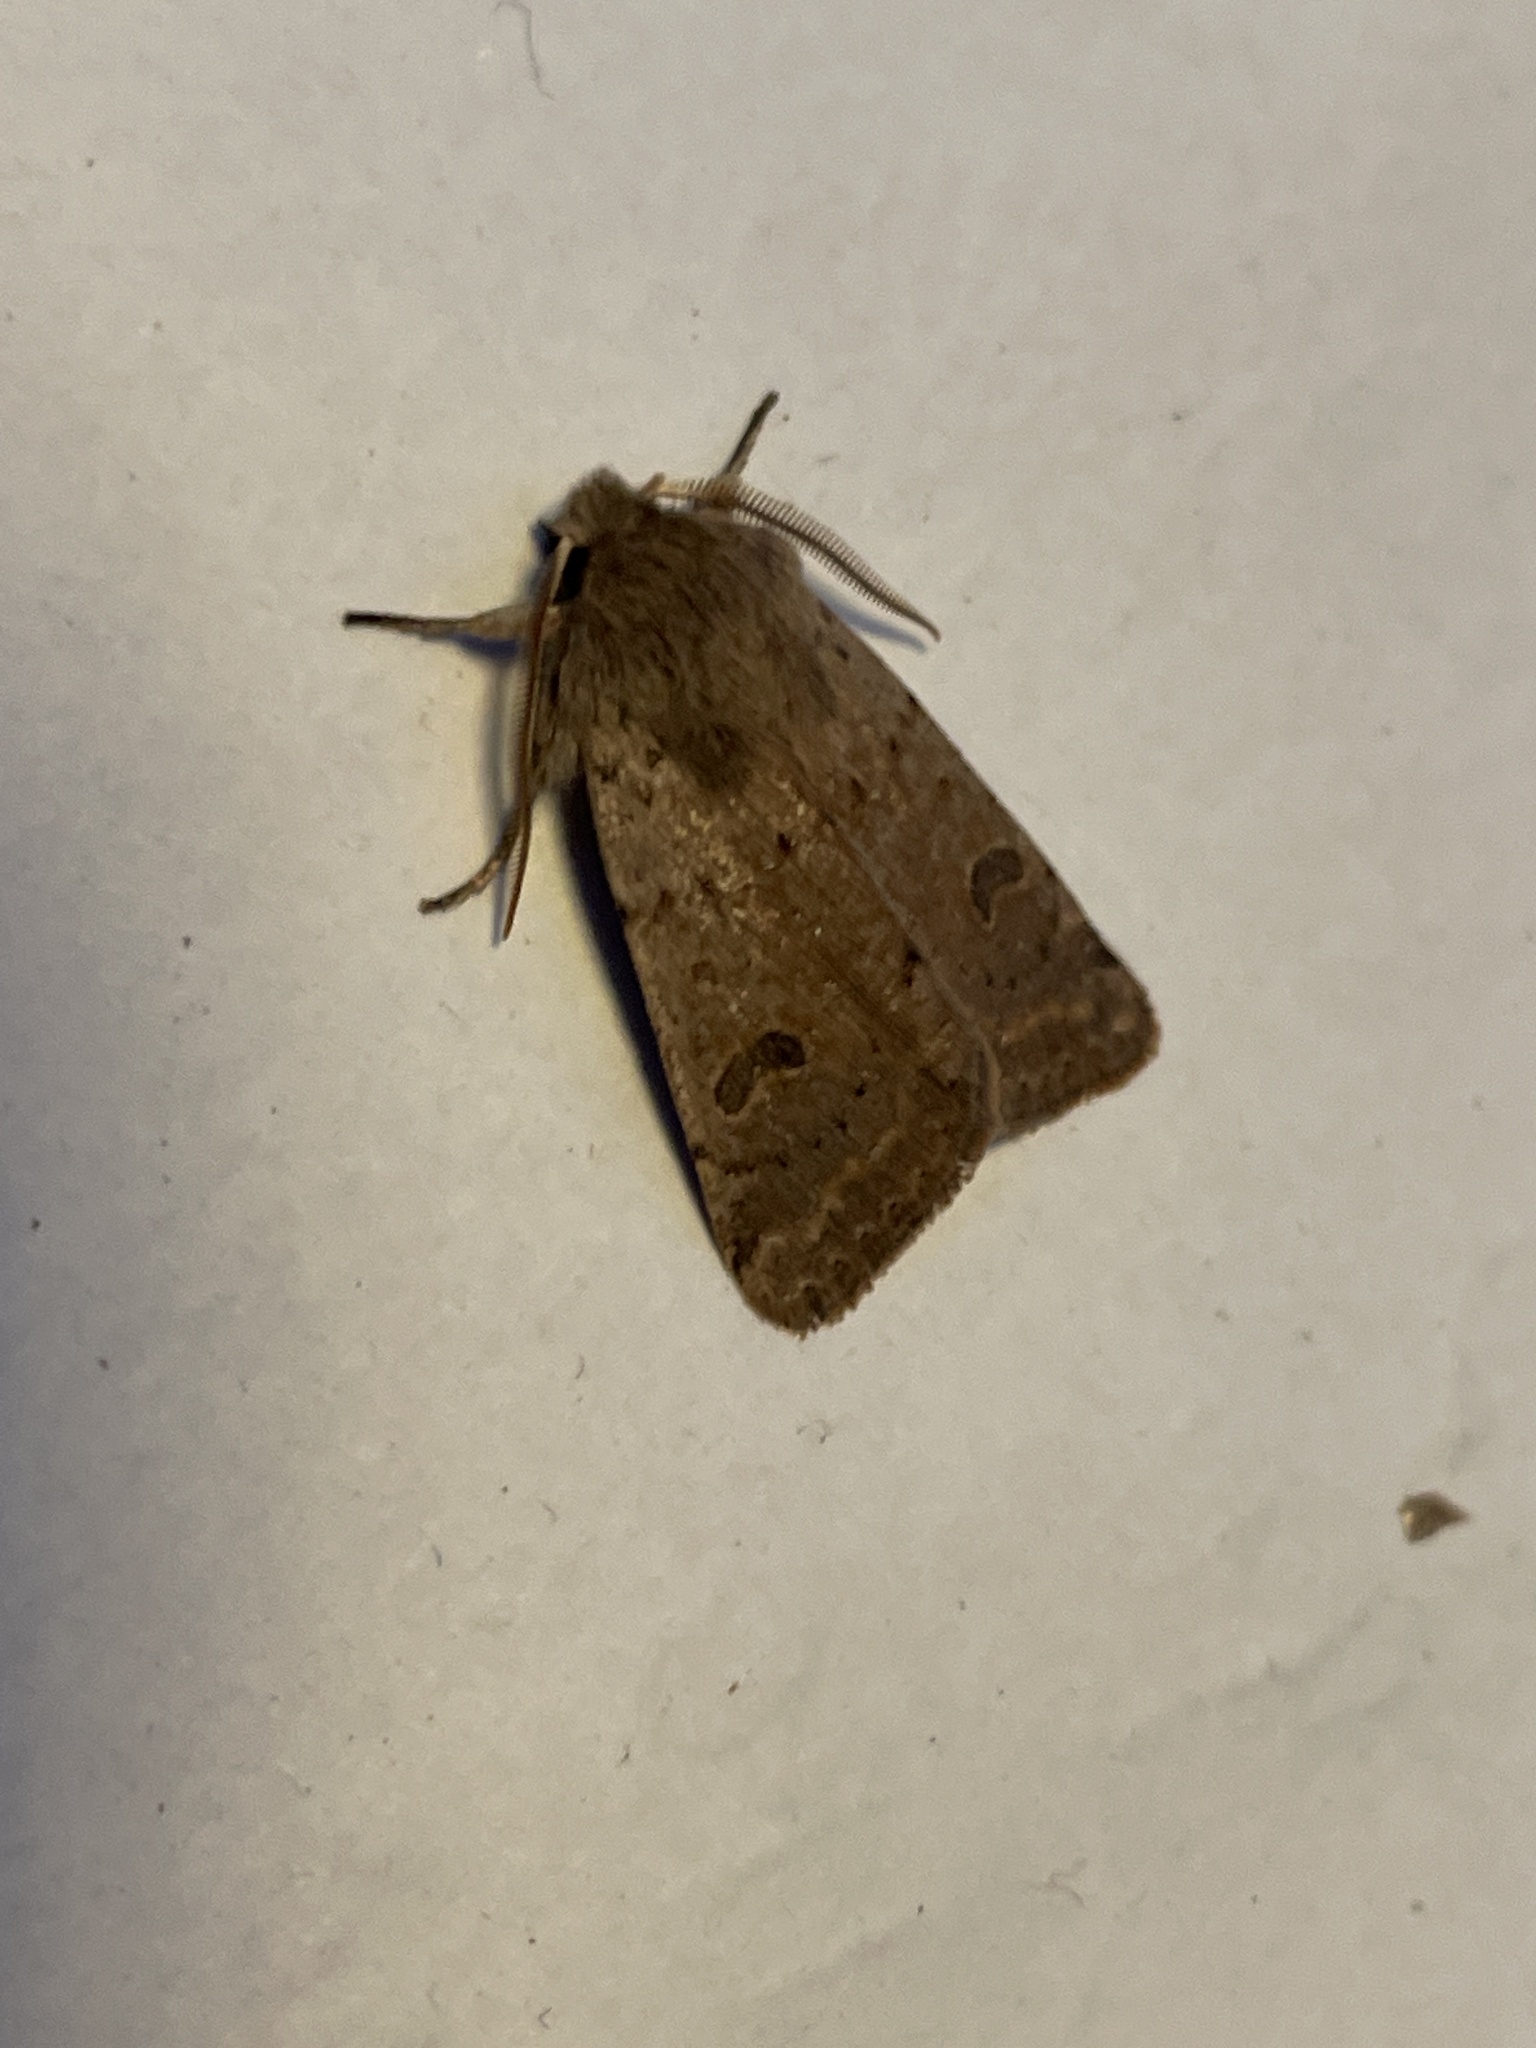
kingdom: Animalia
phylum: Arthropoda
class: Insecta
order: Lepidoptera
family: Noctuidae
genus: Orthosia
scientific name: Orthosia cruda
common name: Small quaker
